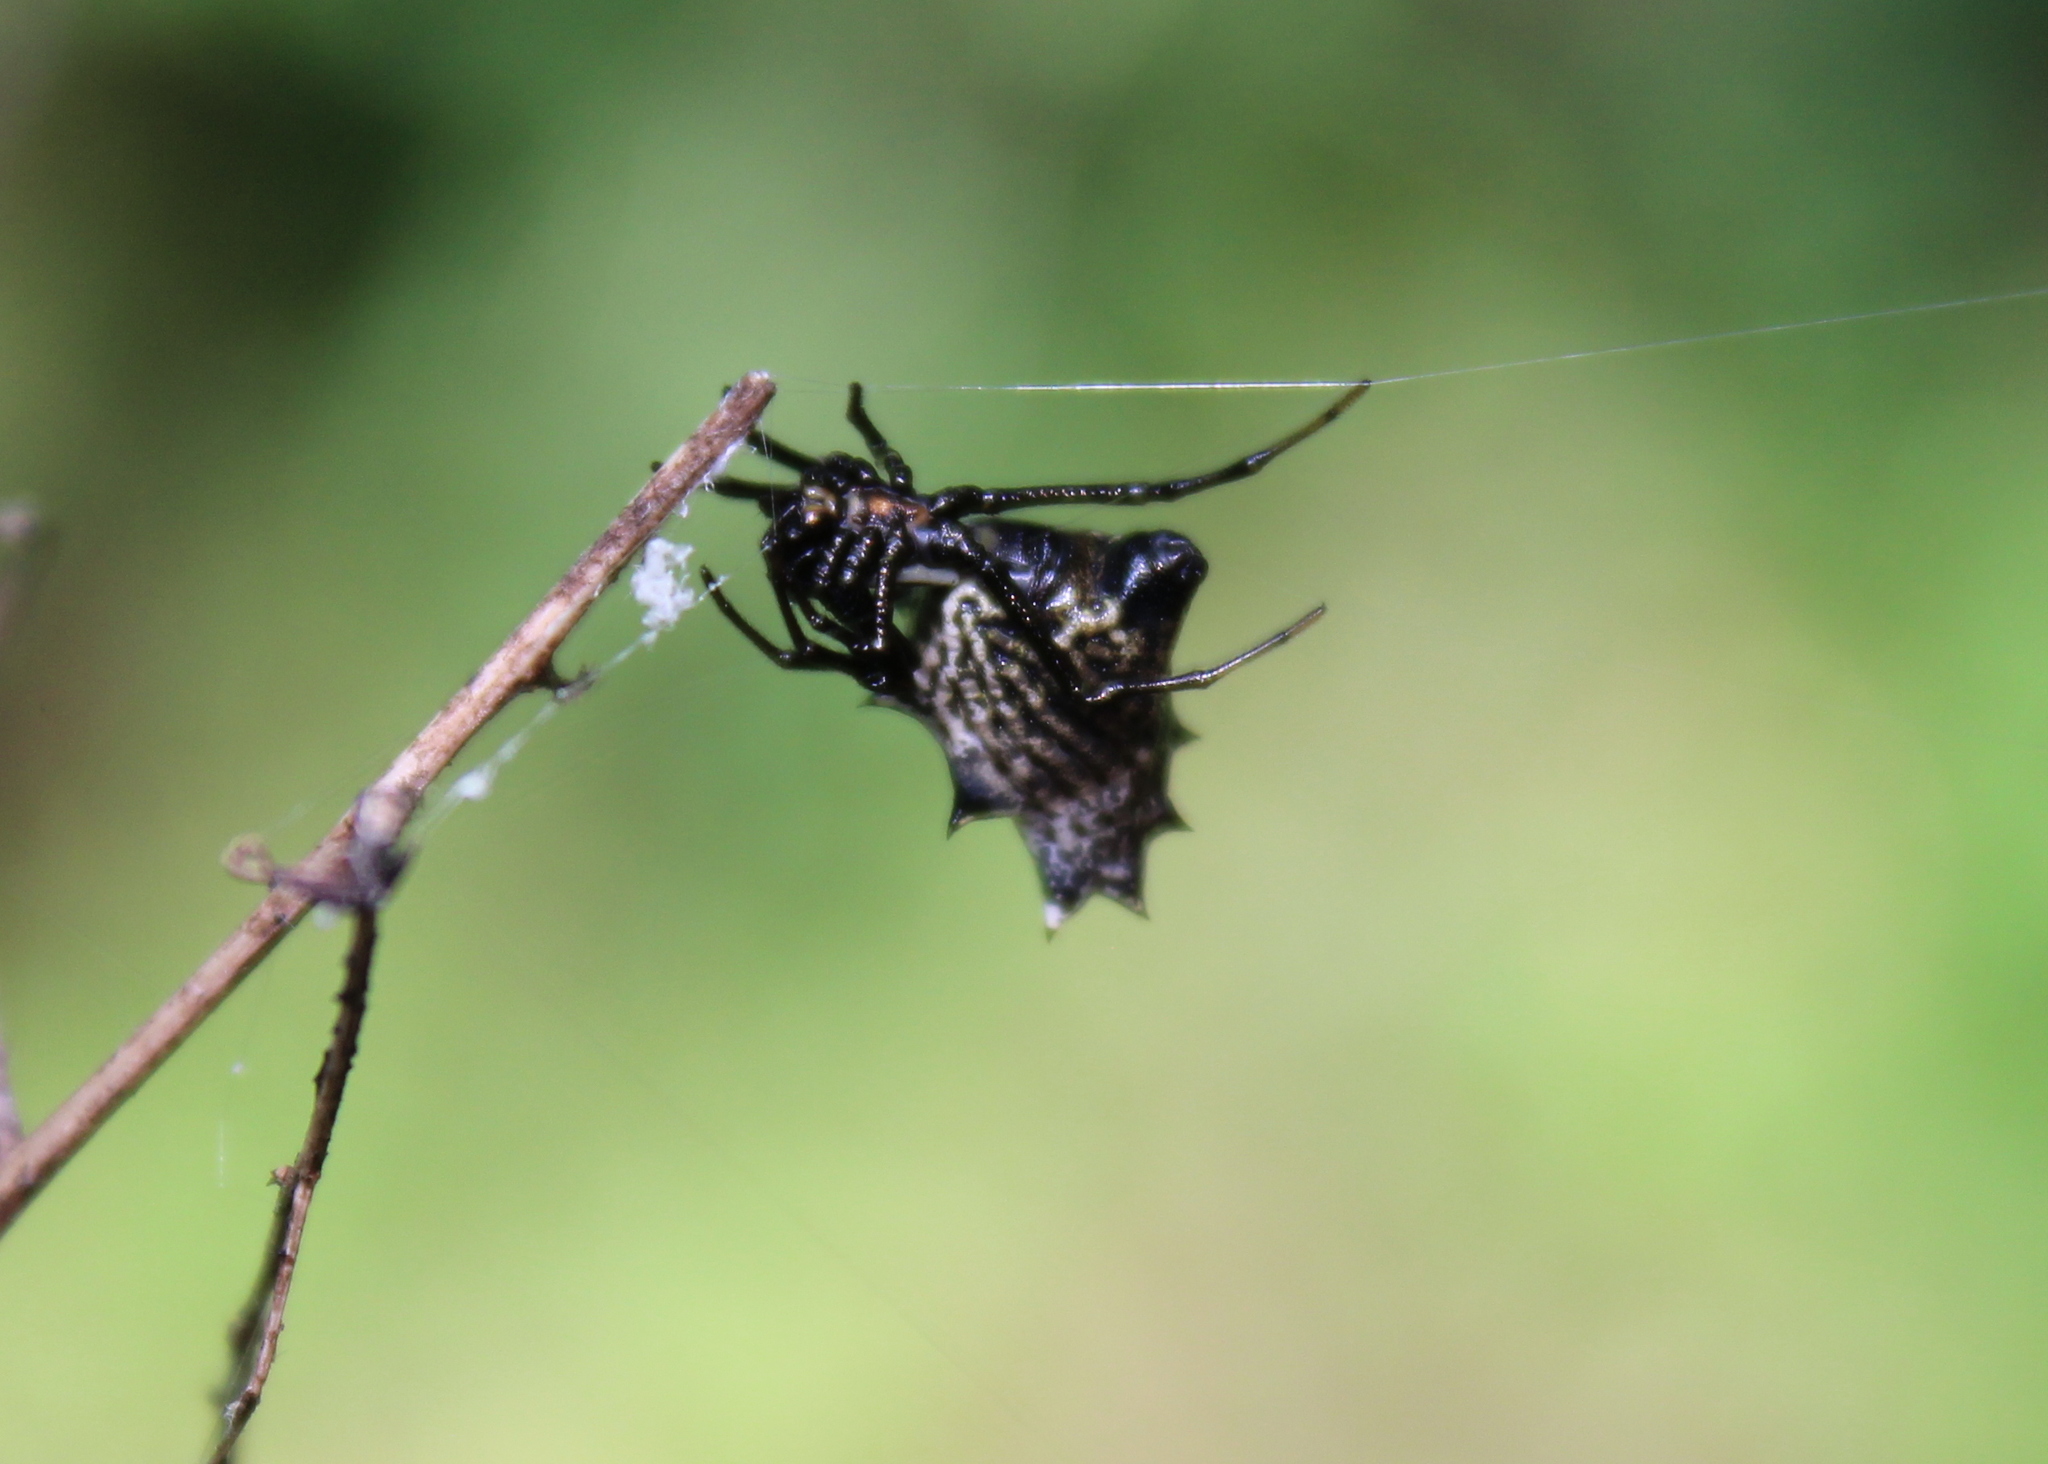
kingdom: Animalia
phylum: Arthropoda
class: Arachnida
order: Araneae
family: Araneidae
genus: Micrathena
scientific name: Micrathena gracilis
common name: Orb weavers
